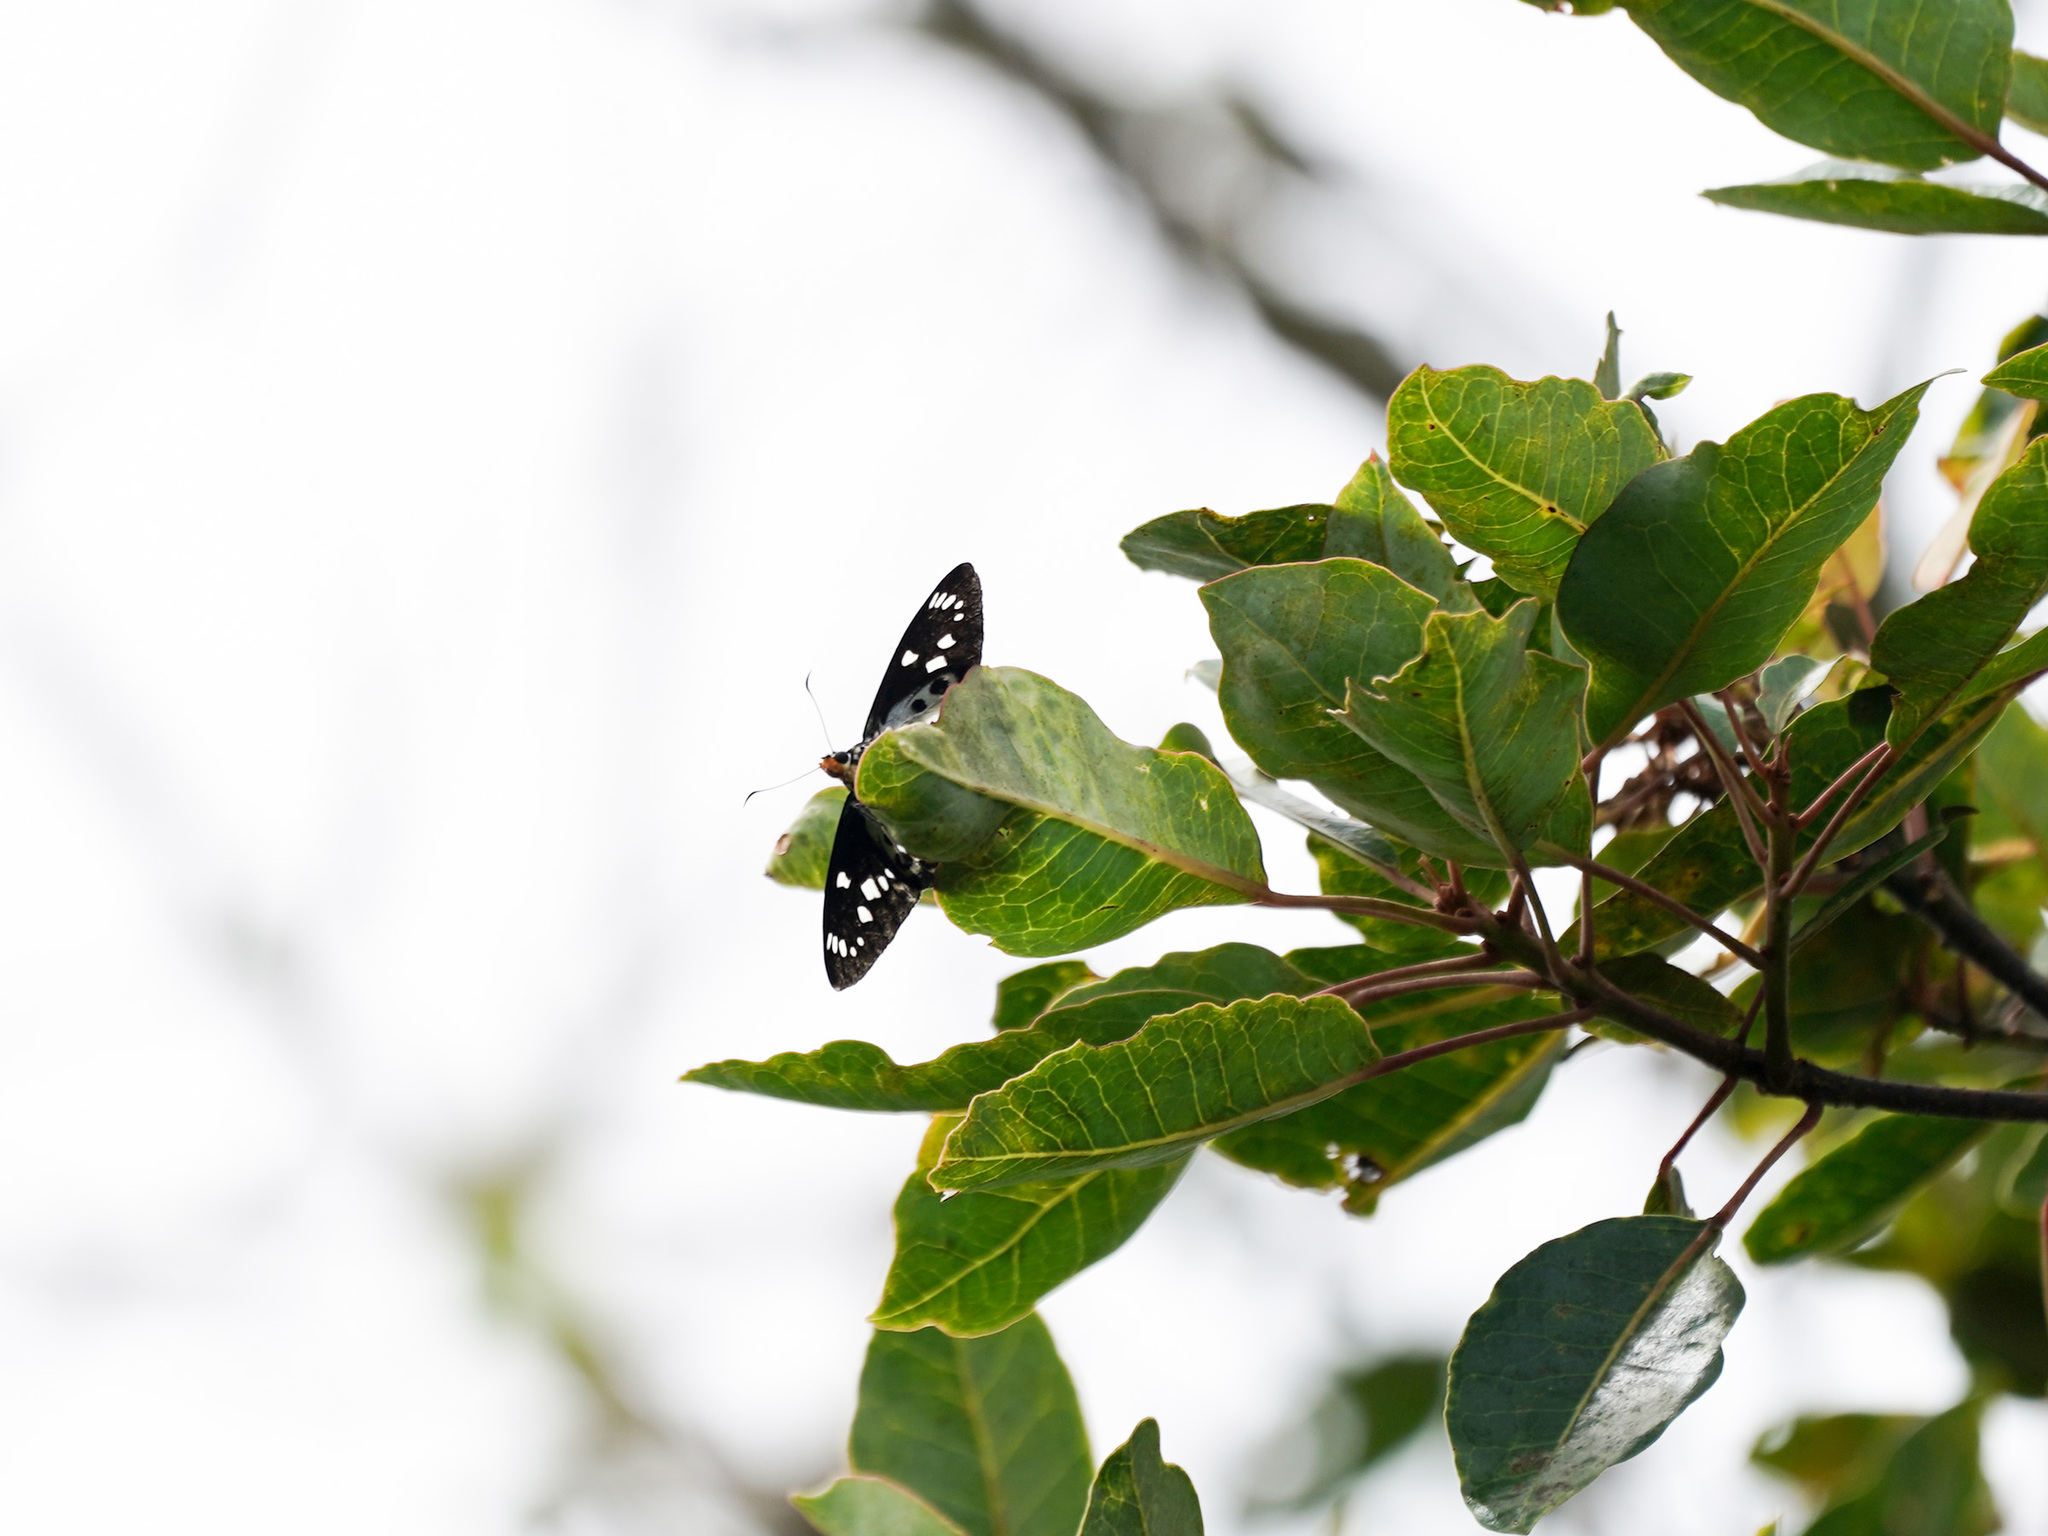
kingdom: Animalia
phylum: Arthropoda
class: Insecta
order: Lepidoptera
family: Hesperiidae
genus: Satarupa
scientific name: Satarupa gopala
